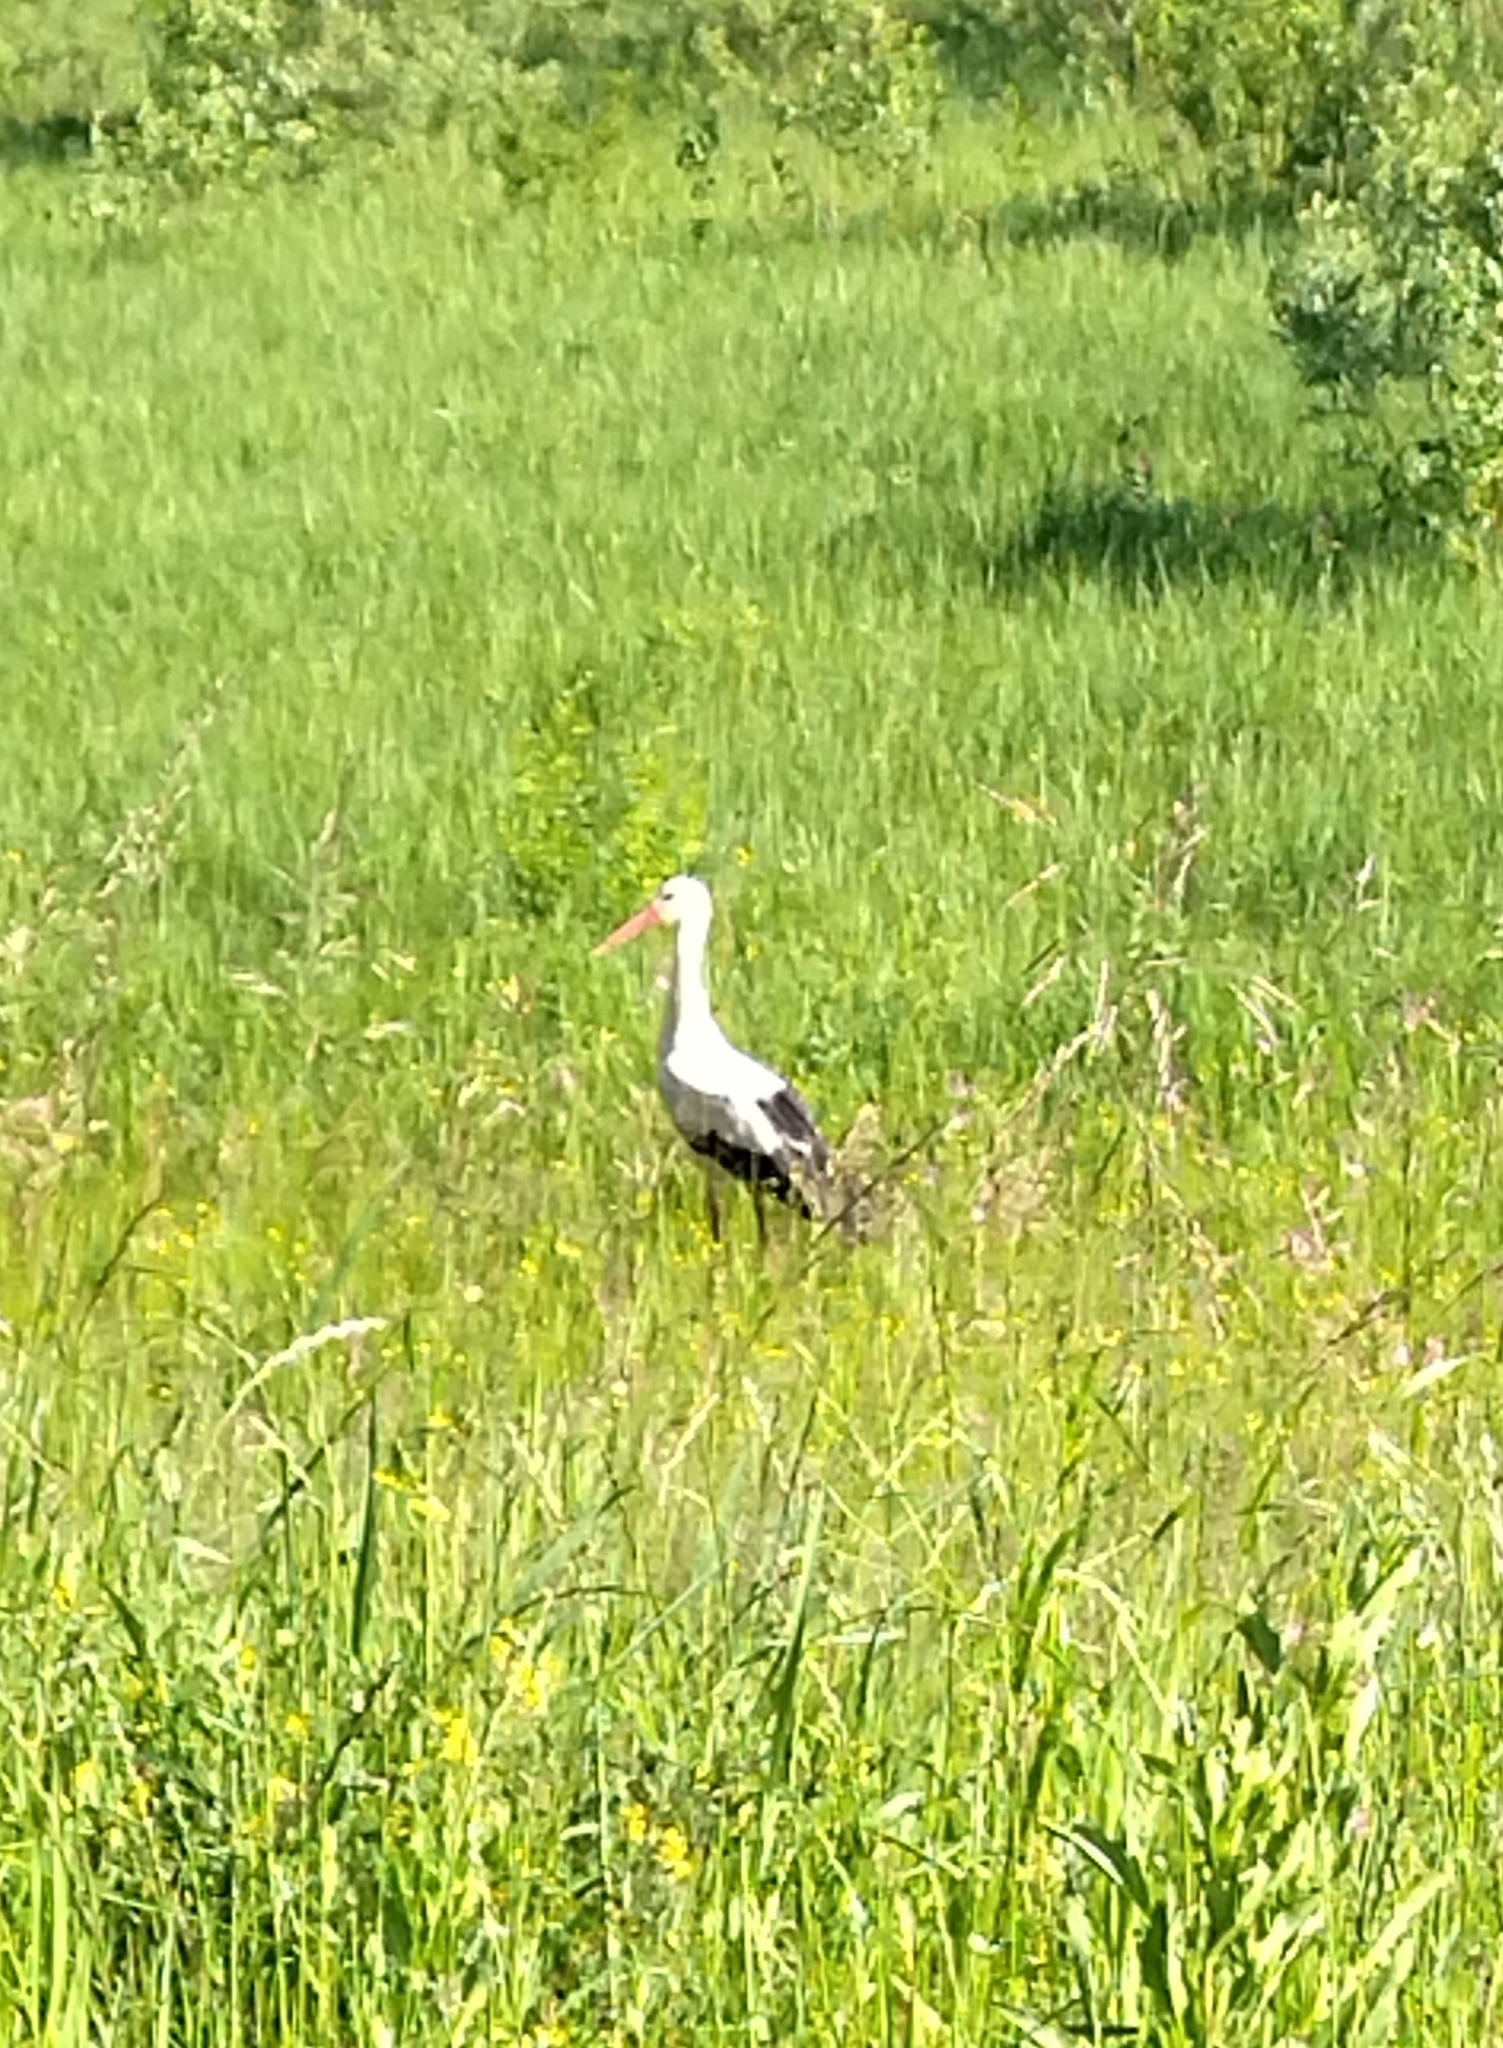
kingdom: Animalia
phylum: Chordata
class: Aves
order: Ciconiiformes
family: Ciconiidae
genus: Ciconia
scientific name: Ciconia ciconia
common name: White stork
